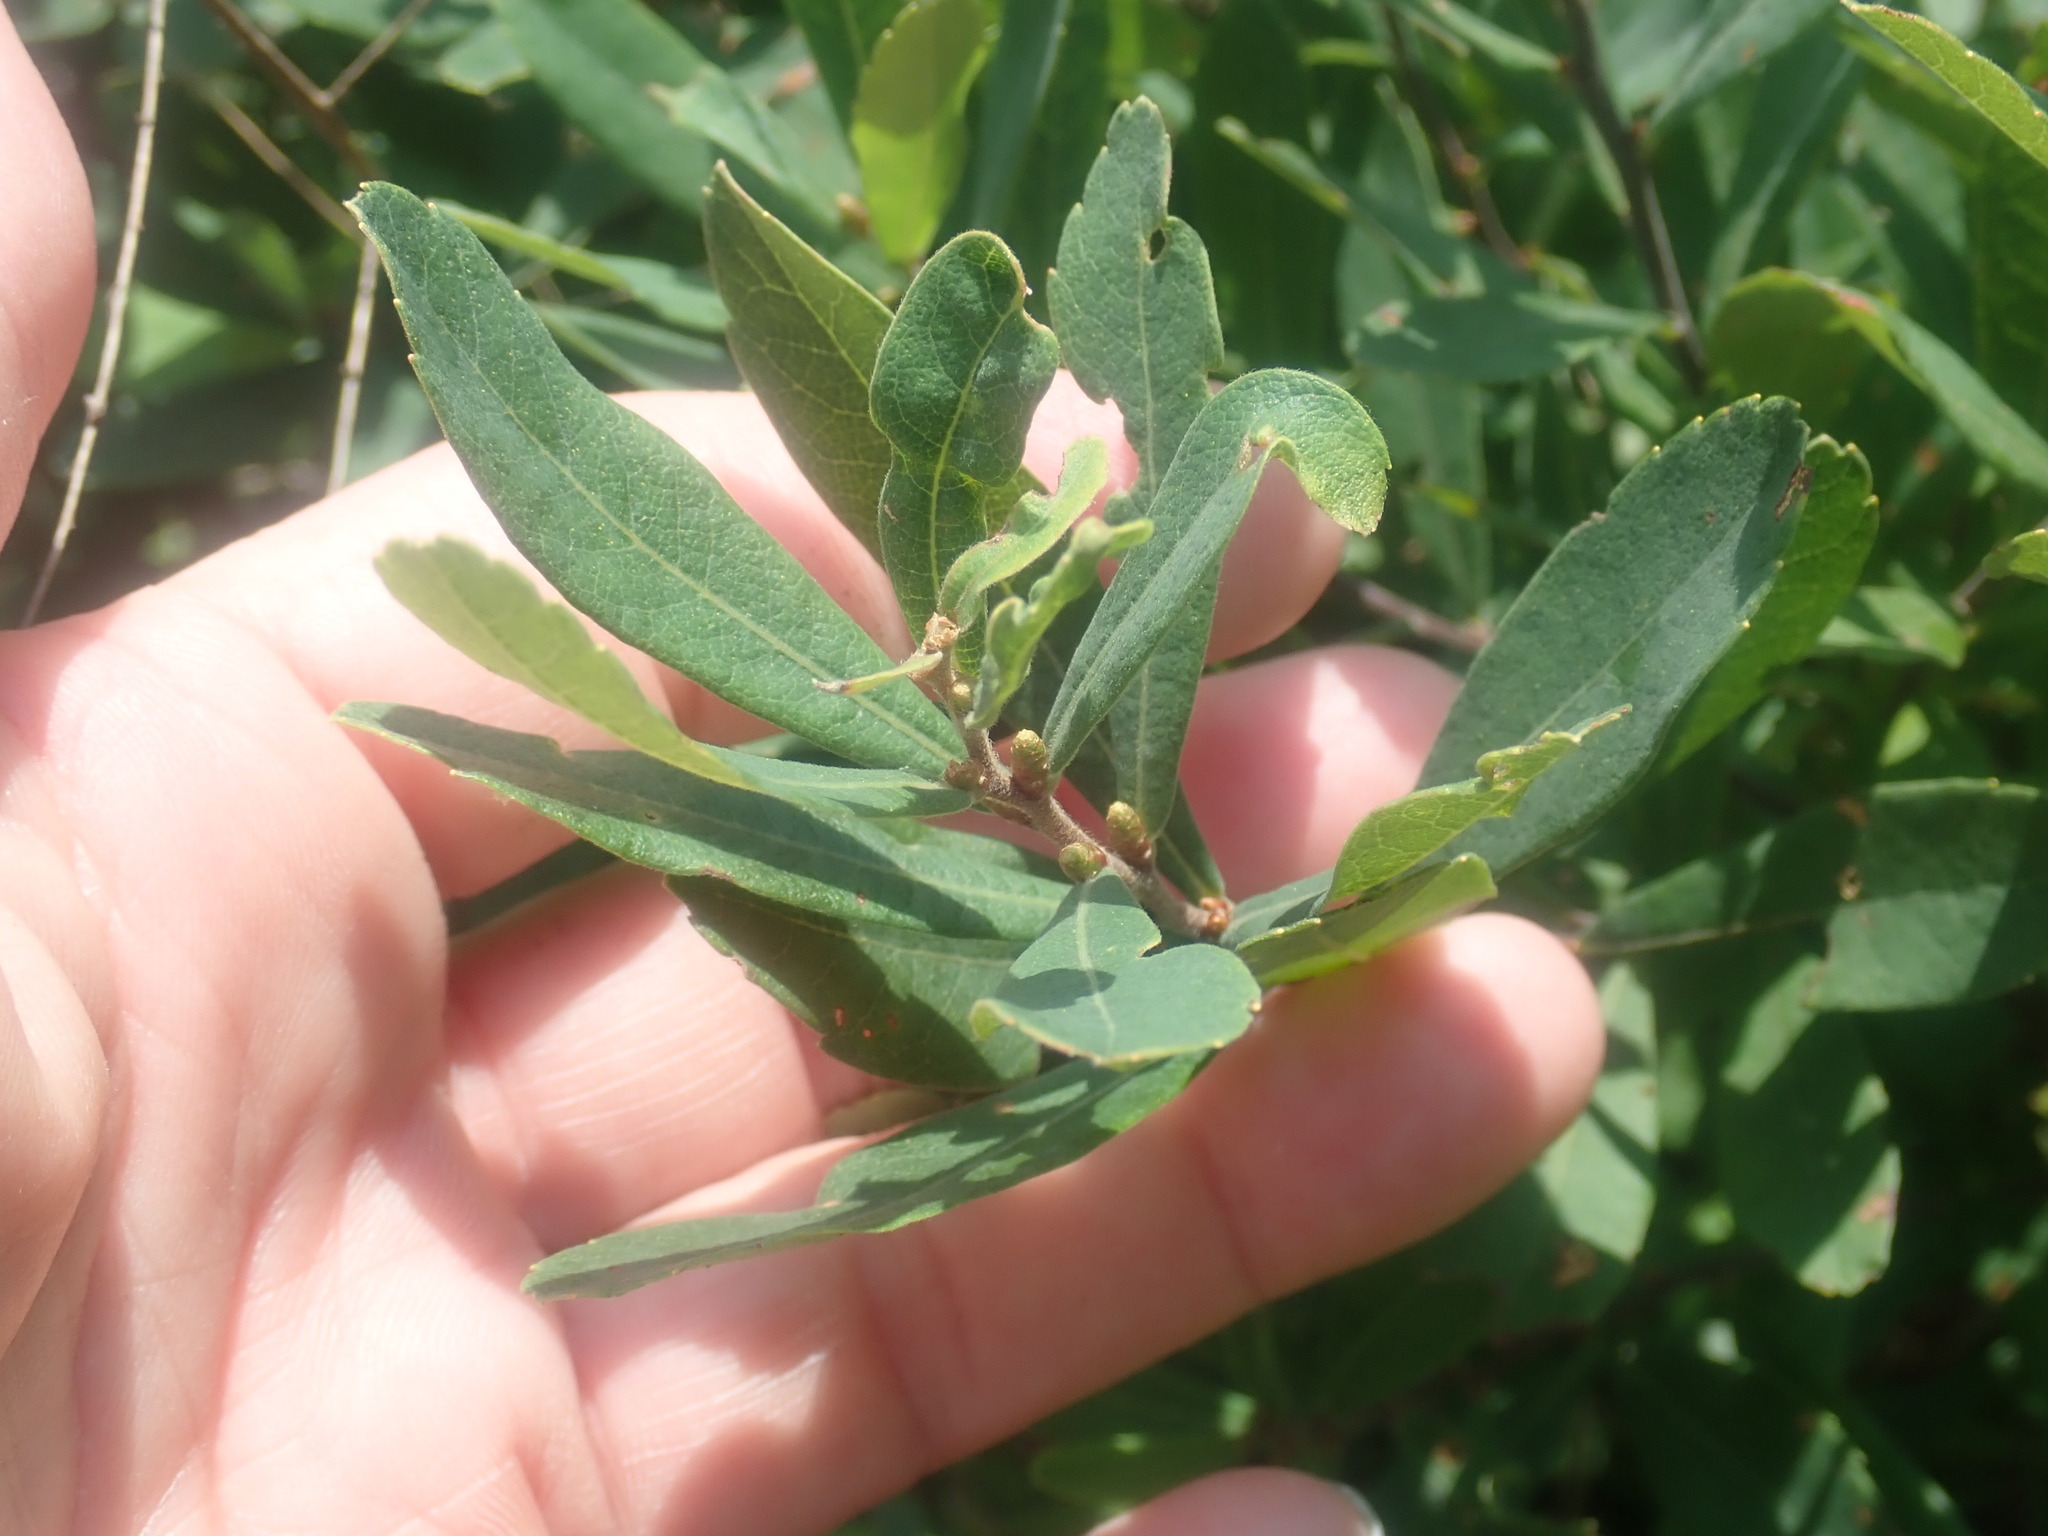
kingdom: Plantae
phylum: Tracheophyta
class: Magnoliopsida
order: Fagales
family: Myricaceae
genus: Myrica
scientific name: Myrica gale
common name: Sweet gale
